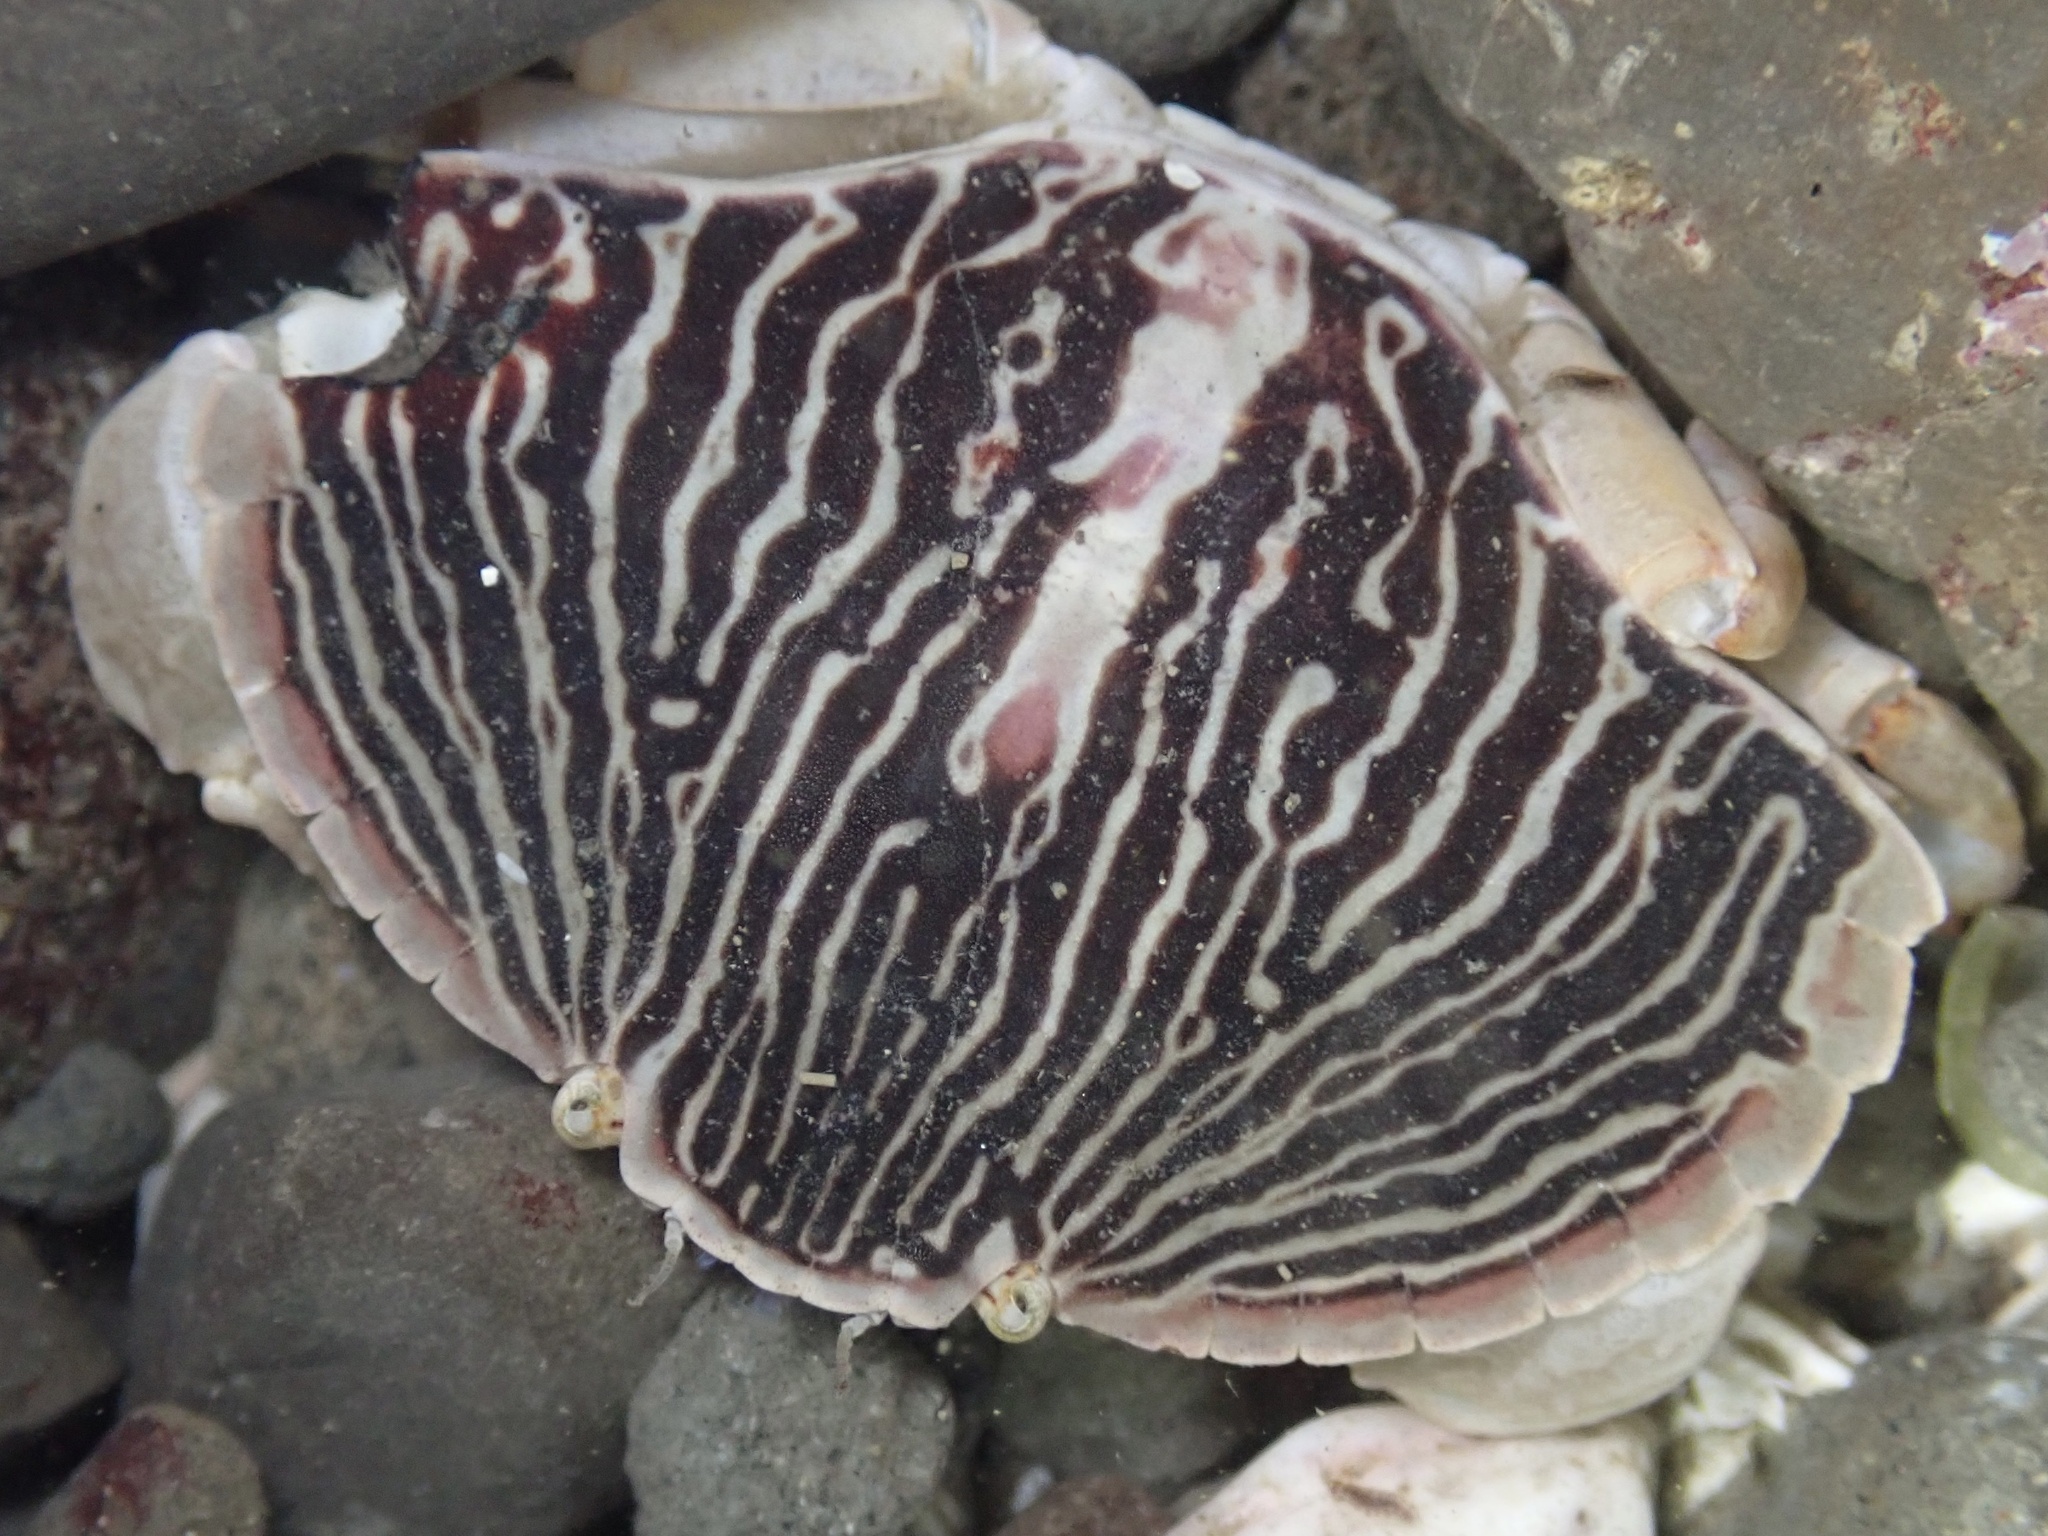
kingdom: Animalia
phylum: Arthropoda
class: Malacostraca
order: Decapoda
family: Cancridae
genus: Cancer
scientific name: Cancer productus
